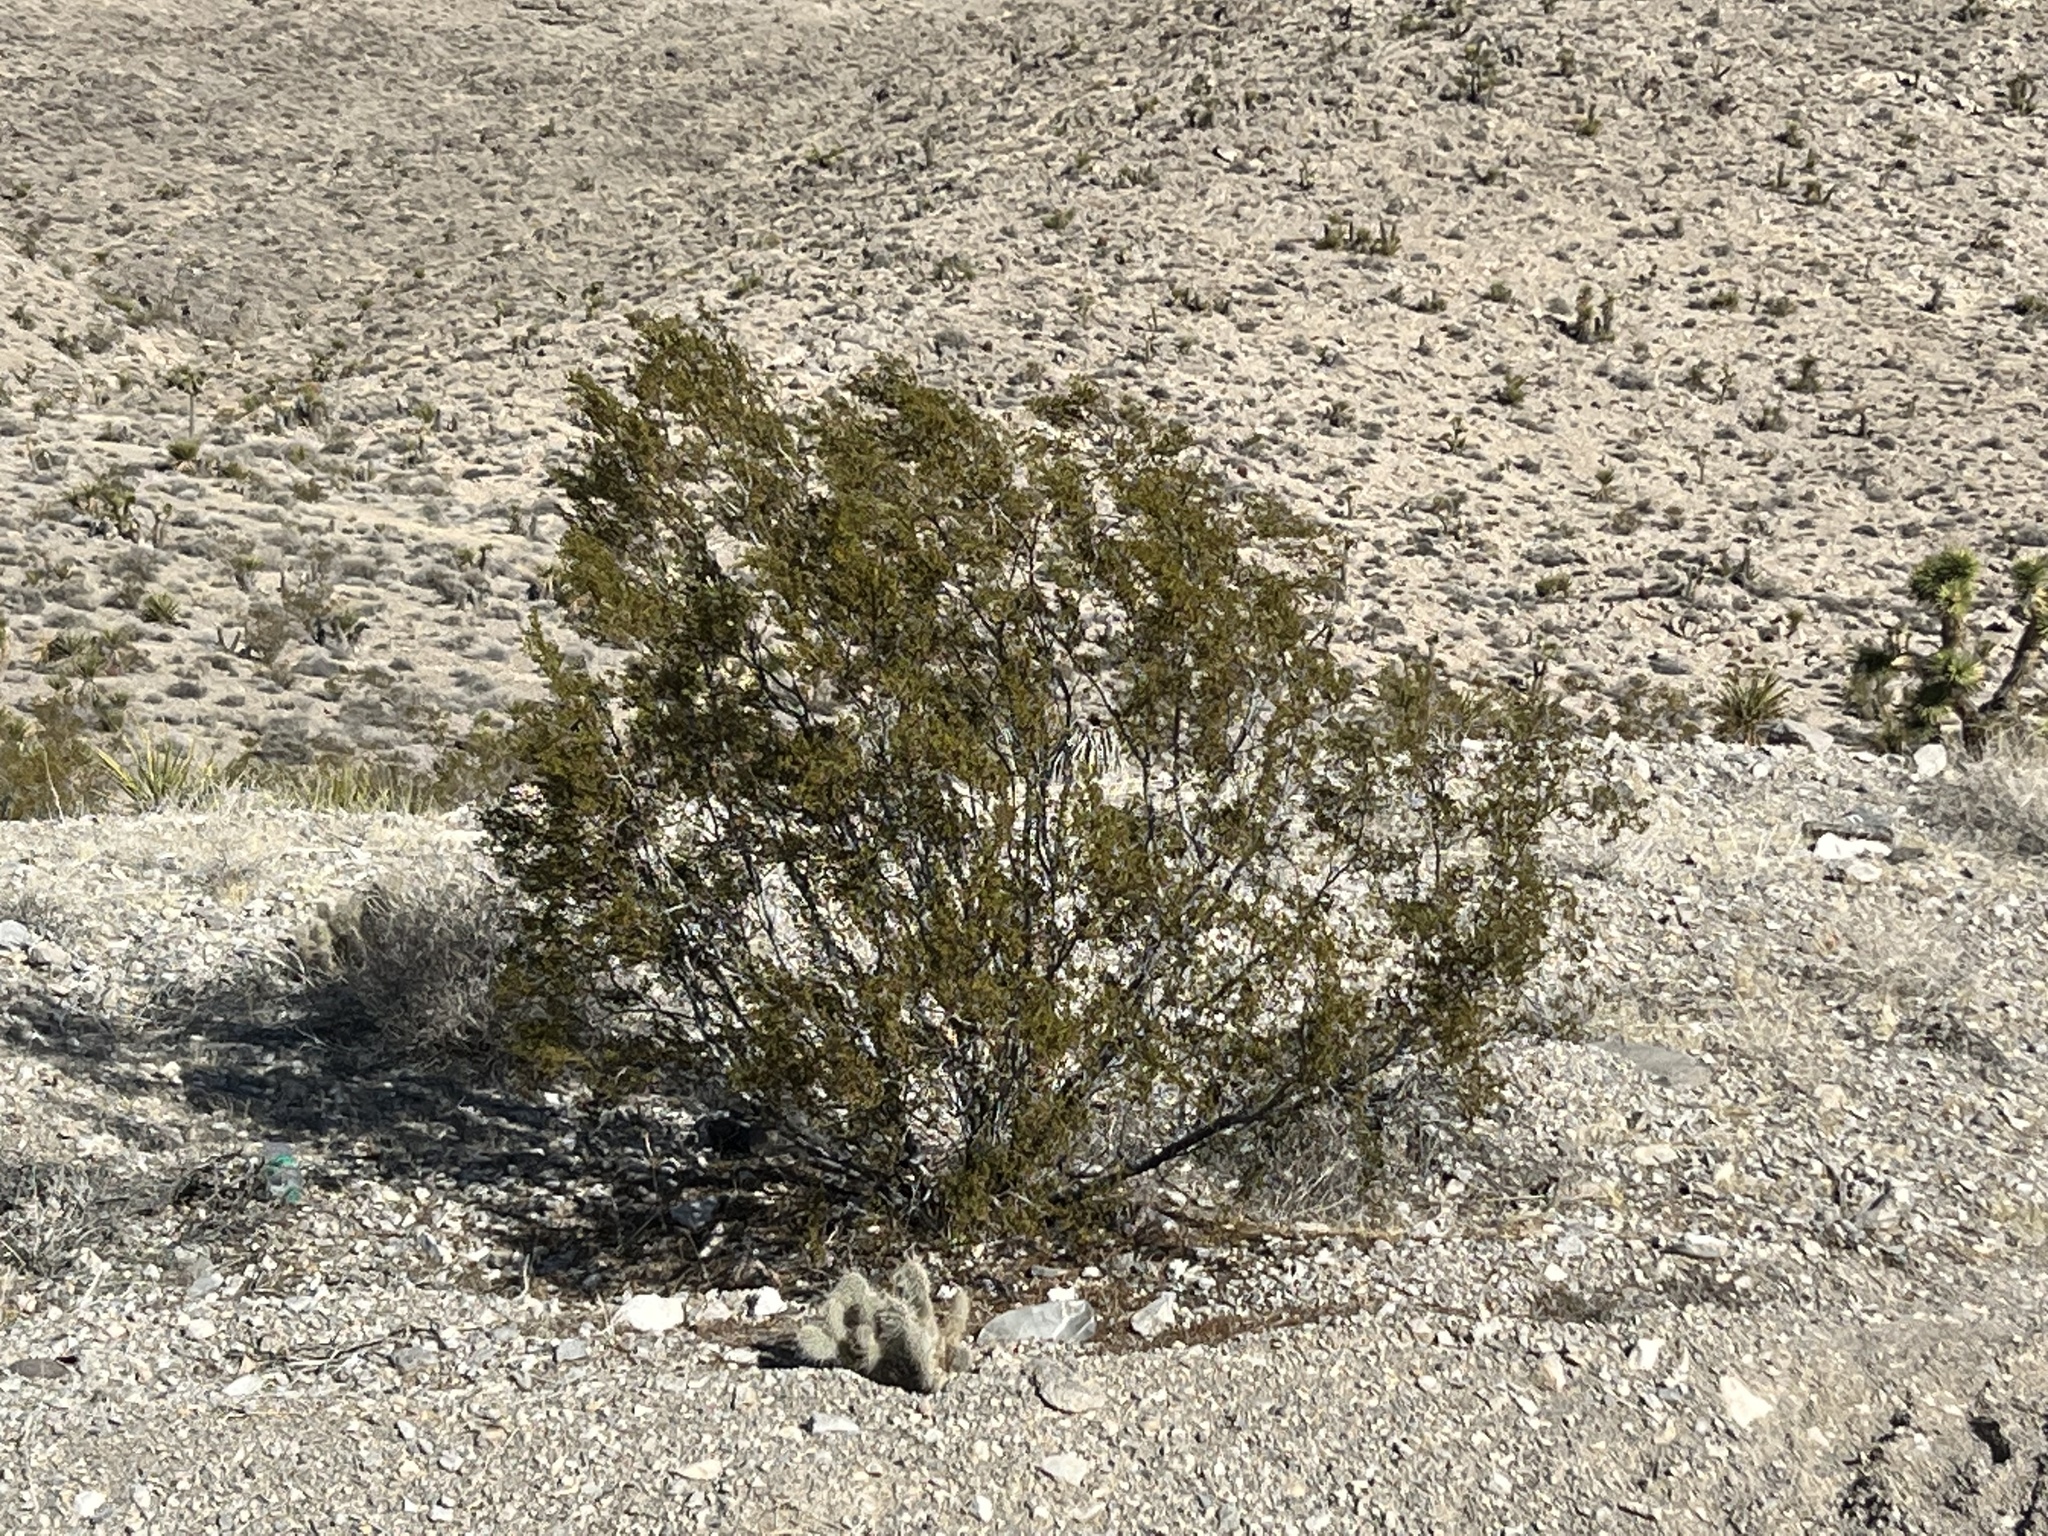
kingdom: Plantae
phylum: Tracheophyta
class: Magnoliopsida
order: Zygophyllales
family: Zygophyllaceae
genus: Larrea
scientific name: Larrea tridentata
